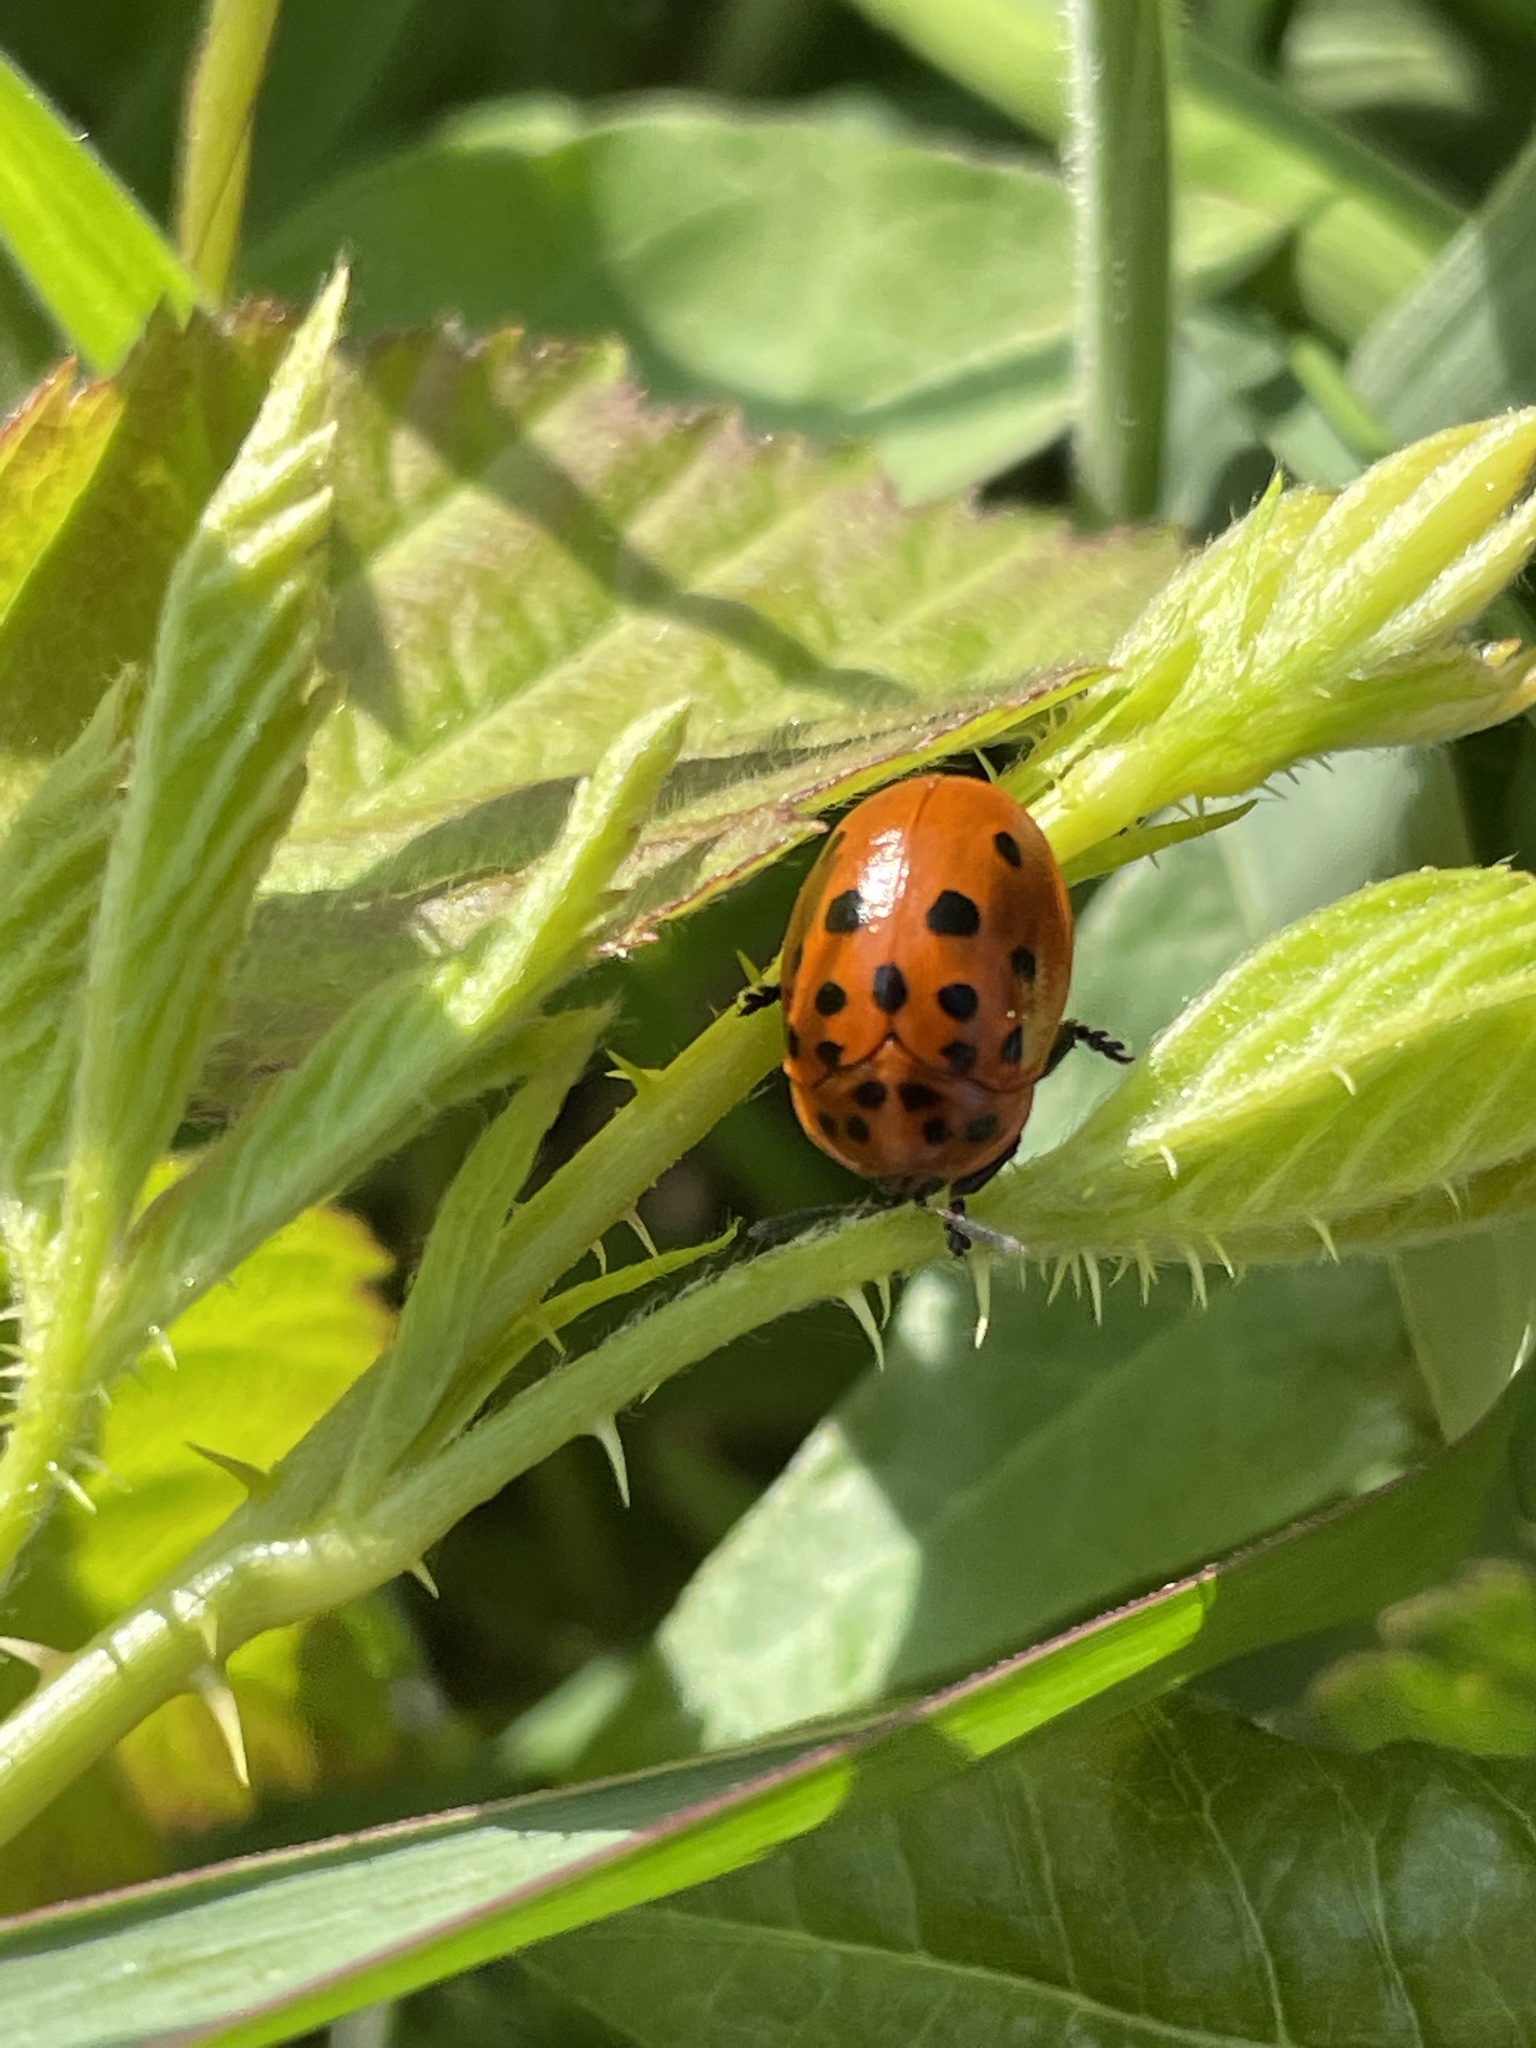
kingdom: Animalia
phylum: Arthropoda
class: Insecta
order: Coleoptera
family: Chrysomelidae
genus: Chelymorpha
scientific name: Chelymorpha cassidea
